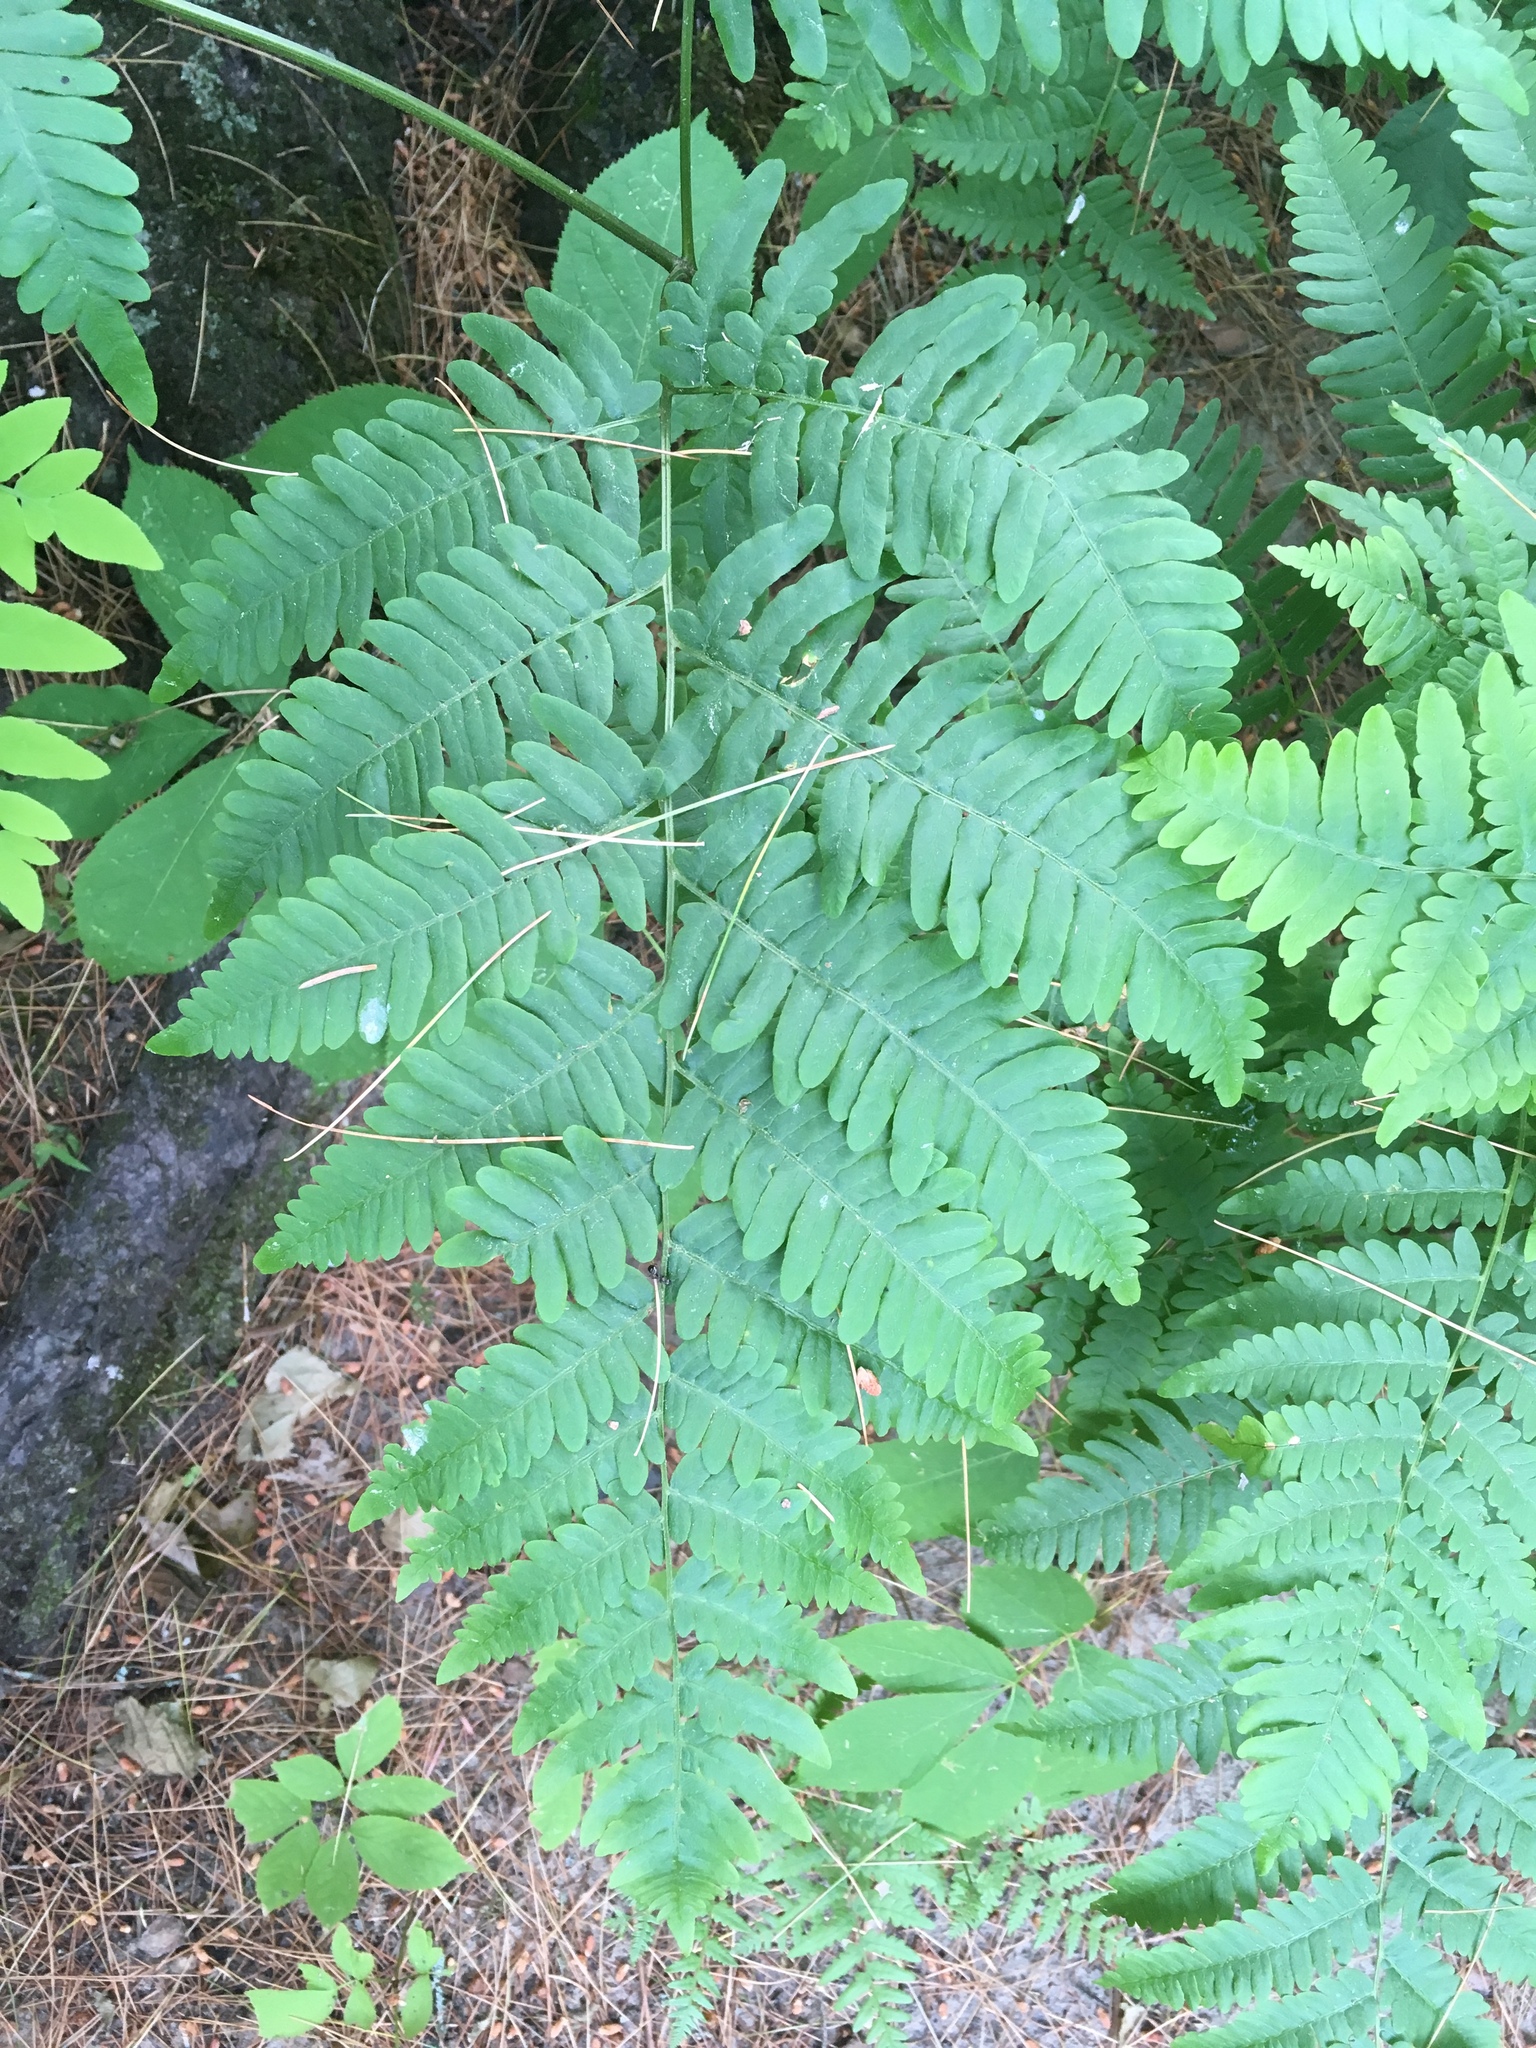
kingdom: Plantae
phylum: Tracheophyta
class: Polypodiopsida
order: Polypodiales
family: Dennstaedtiaceae
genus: Pteridium
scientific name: Pteridium aquilinum
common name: Bracken
